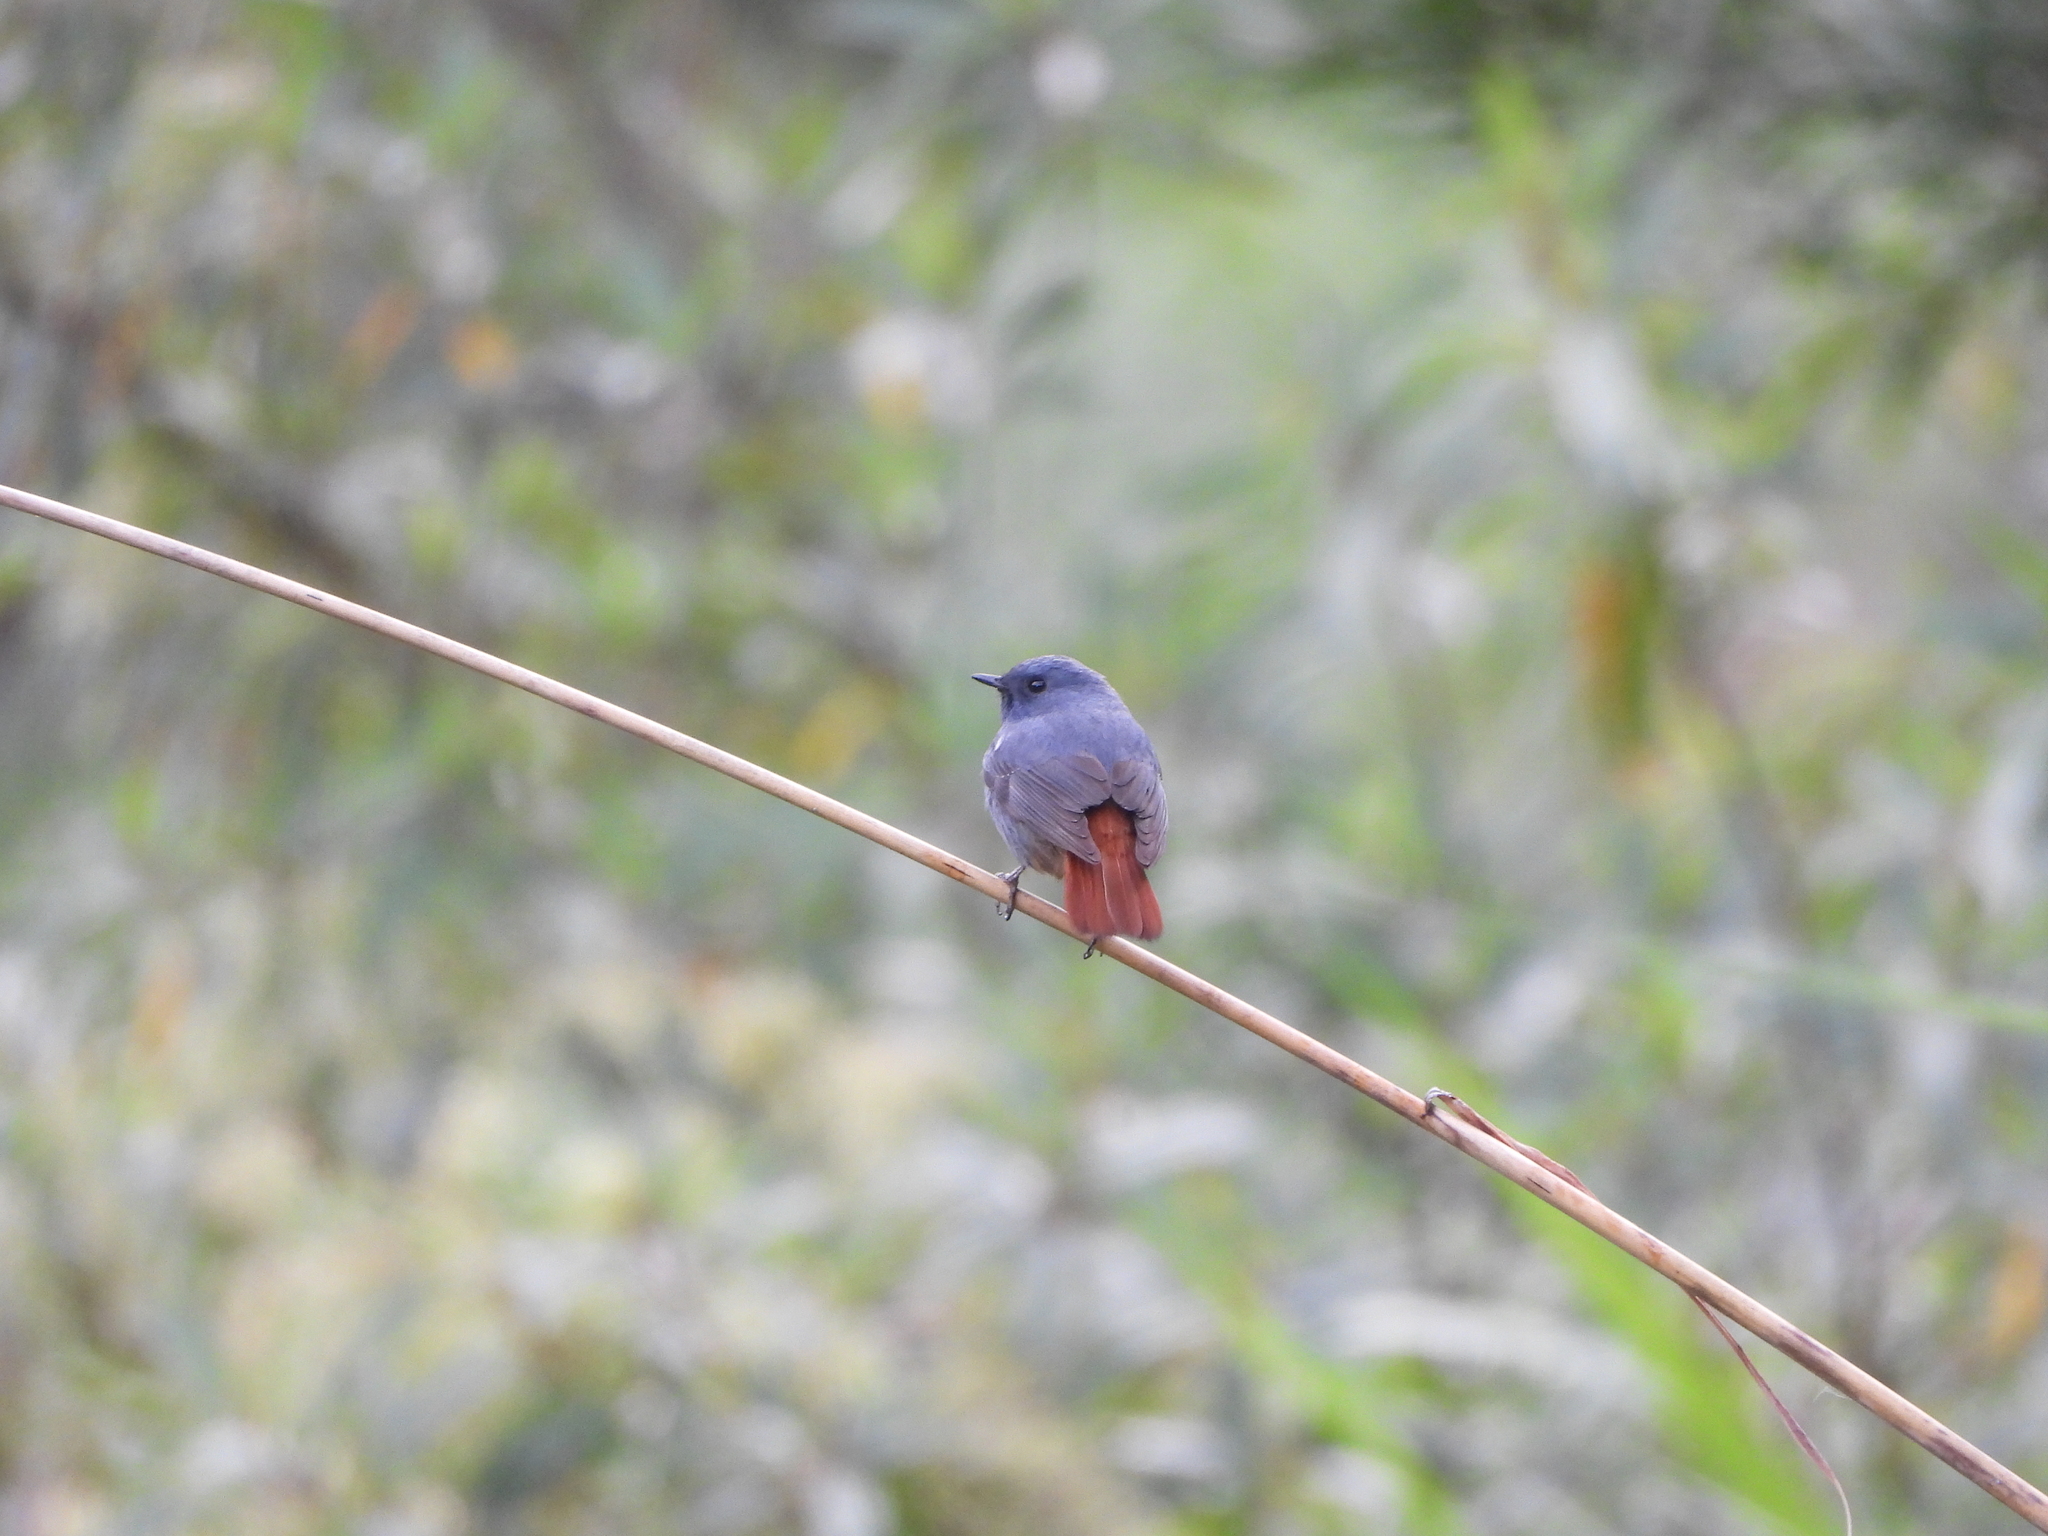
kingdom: Animalia
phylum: Chordata
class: Aves
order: Passeriformes
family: Muscicapidae
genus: Phoenicurus
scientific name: Phoenicurus fuliginosus
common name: Plumbeous water redstart
